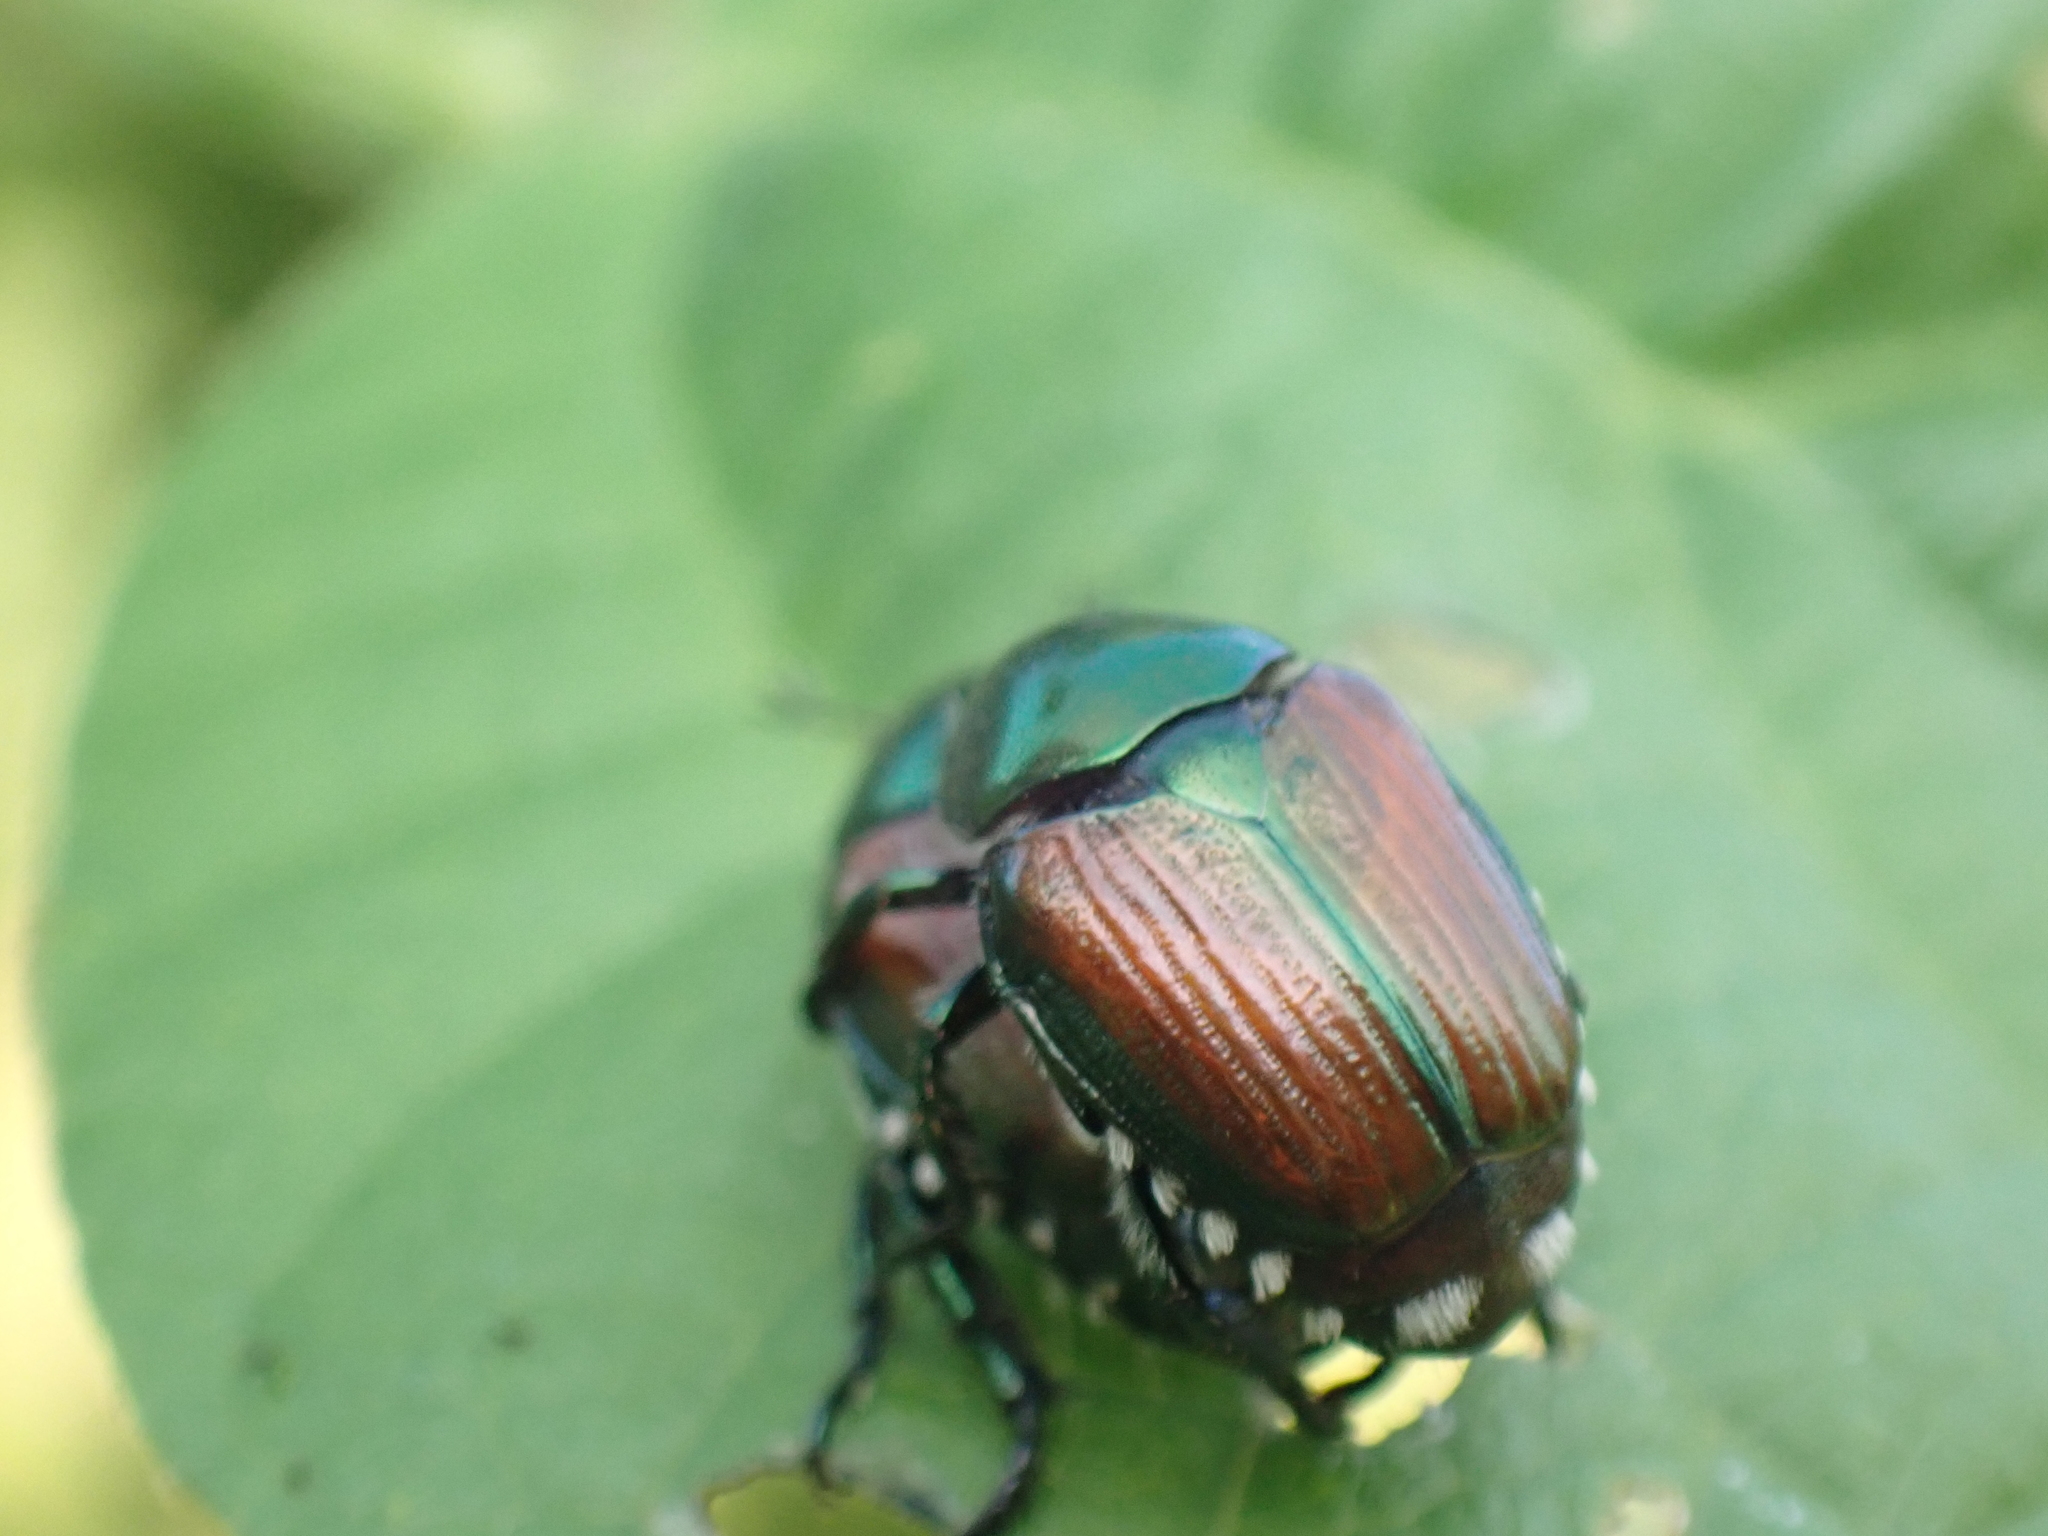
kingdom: Animalia
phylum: Arthropoda
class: Insecta
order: Coleoptera
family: Scarabaeidae
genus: Popillia
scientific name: Popillia japonica
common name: Japanese beetle
